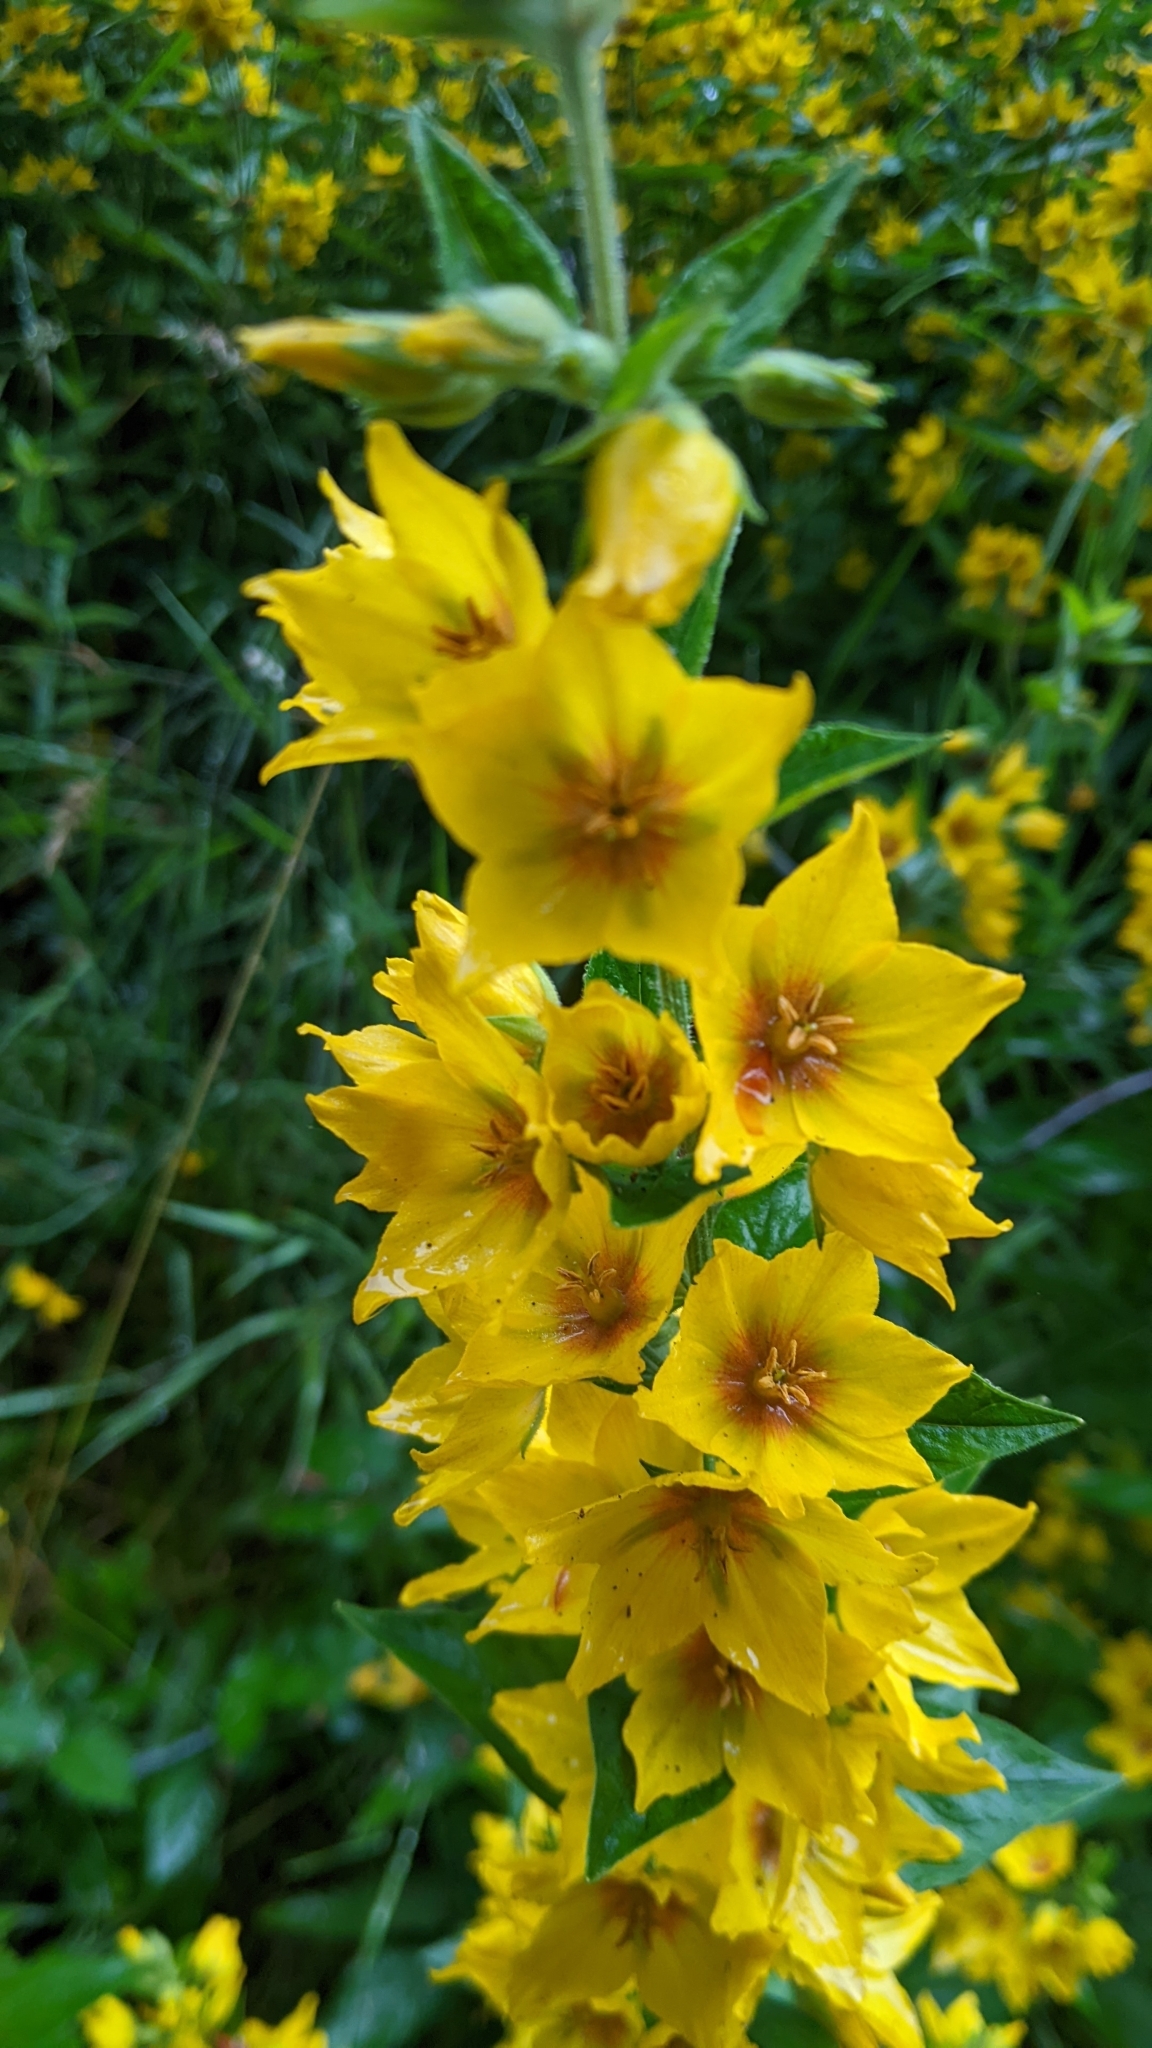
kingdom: Plantae
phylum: Tracheophyta
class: Magnoliopsida
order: Ericales
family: Primulaceae
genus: Lysimachia
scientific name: Lysimachia punctata
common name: Dotted loosestrife
